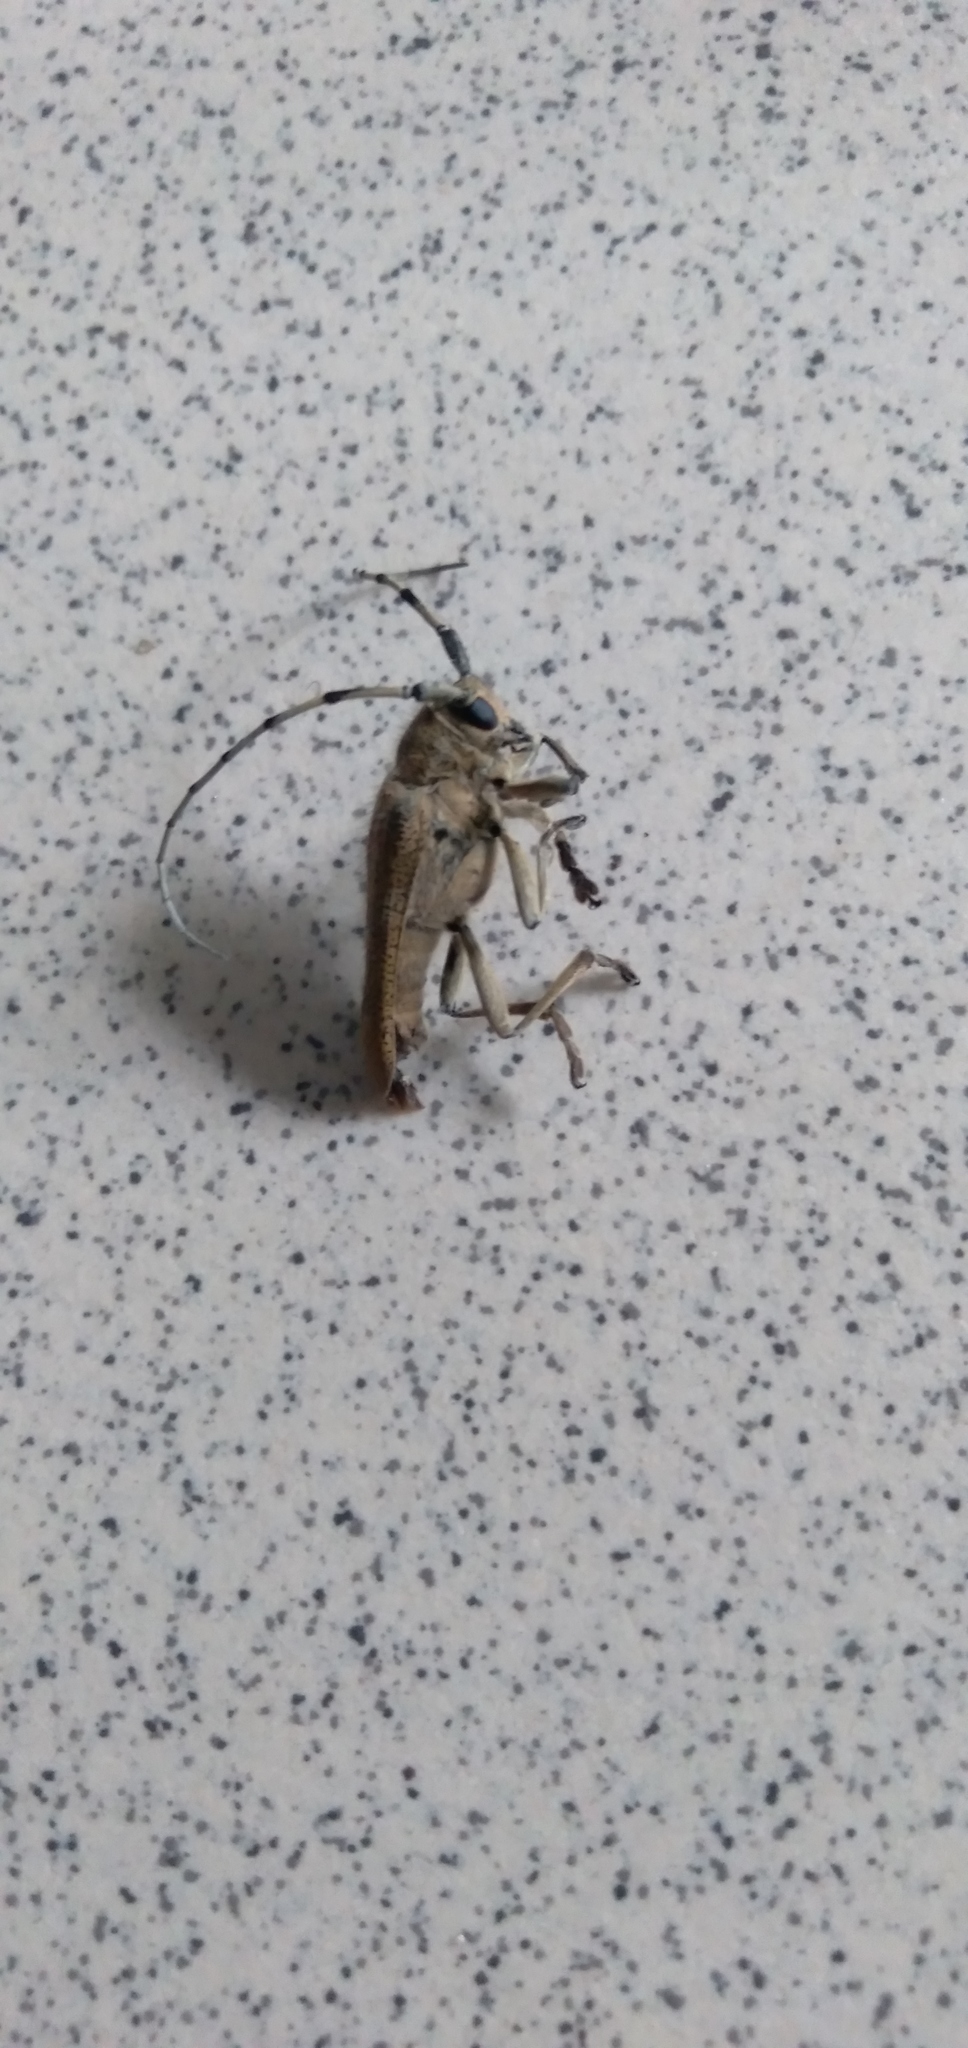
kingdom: Animalia
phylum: Arthropoda
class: Insecta
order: Coleoptera
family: Cerambycidae
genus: Saperda
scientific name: Saperda carcharias
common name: Poplar borer
